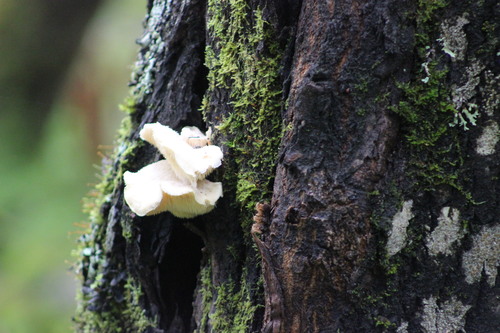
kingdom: Fungi
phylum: Basidiomycota
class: Agaricomycetes
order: Russulales
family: Hericiaceae
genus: Hericium
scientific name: Hericium cirrhatum
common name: Tiered tooth
